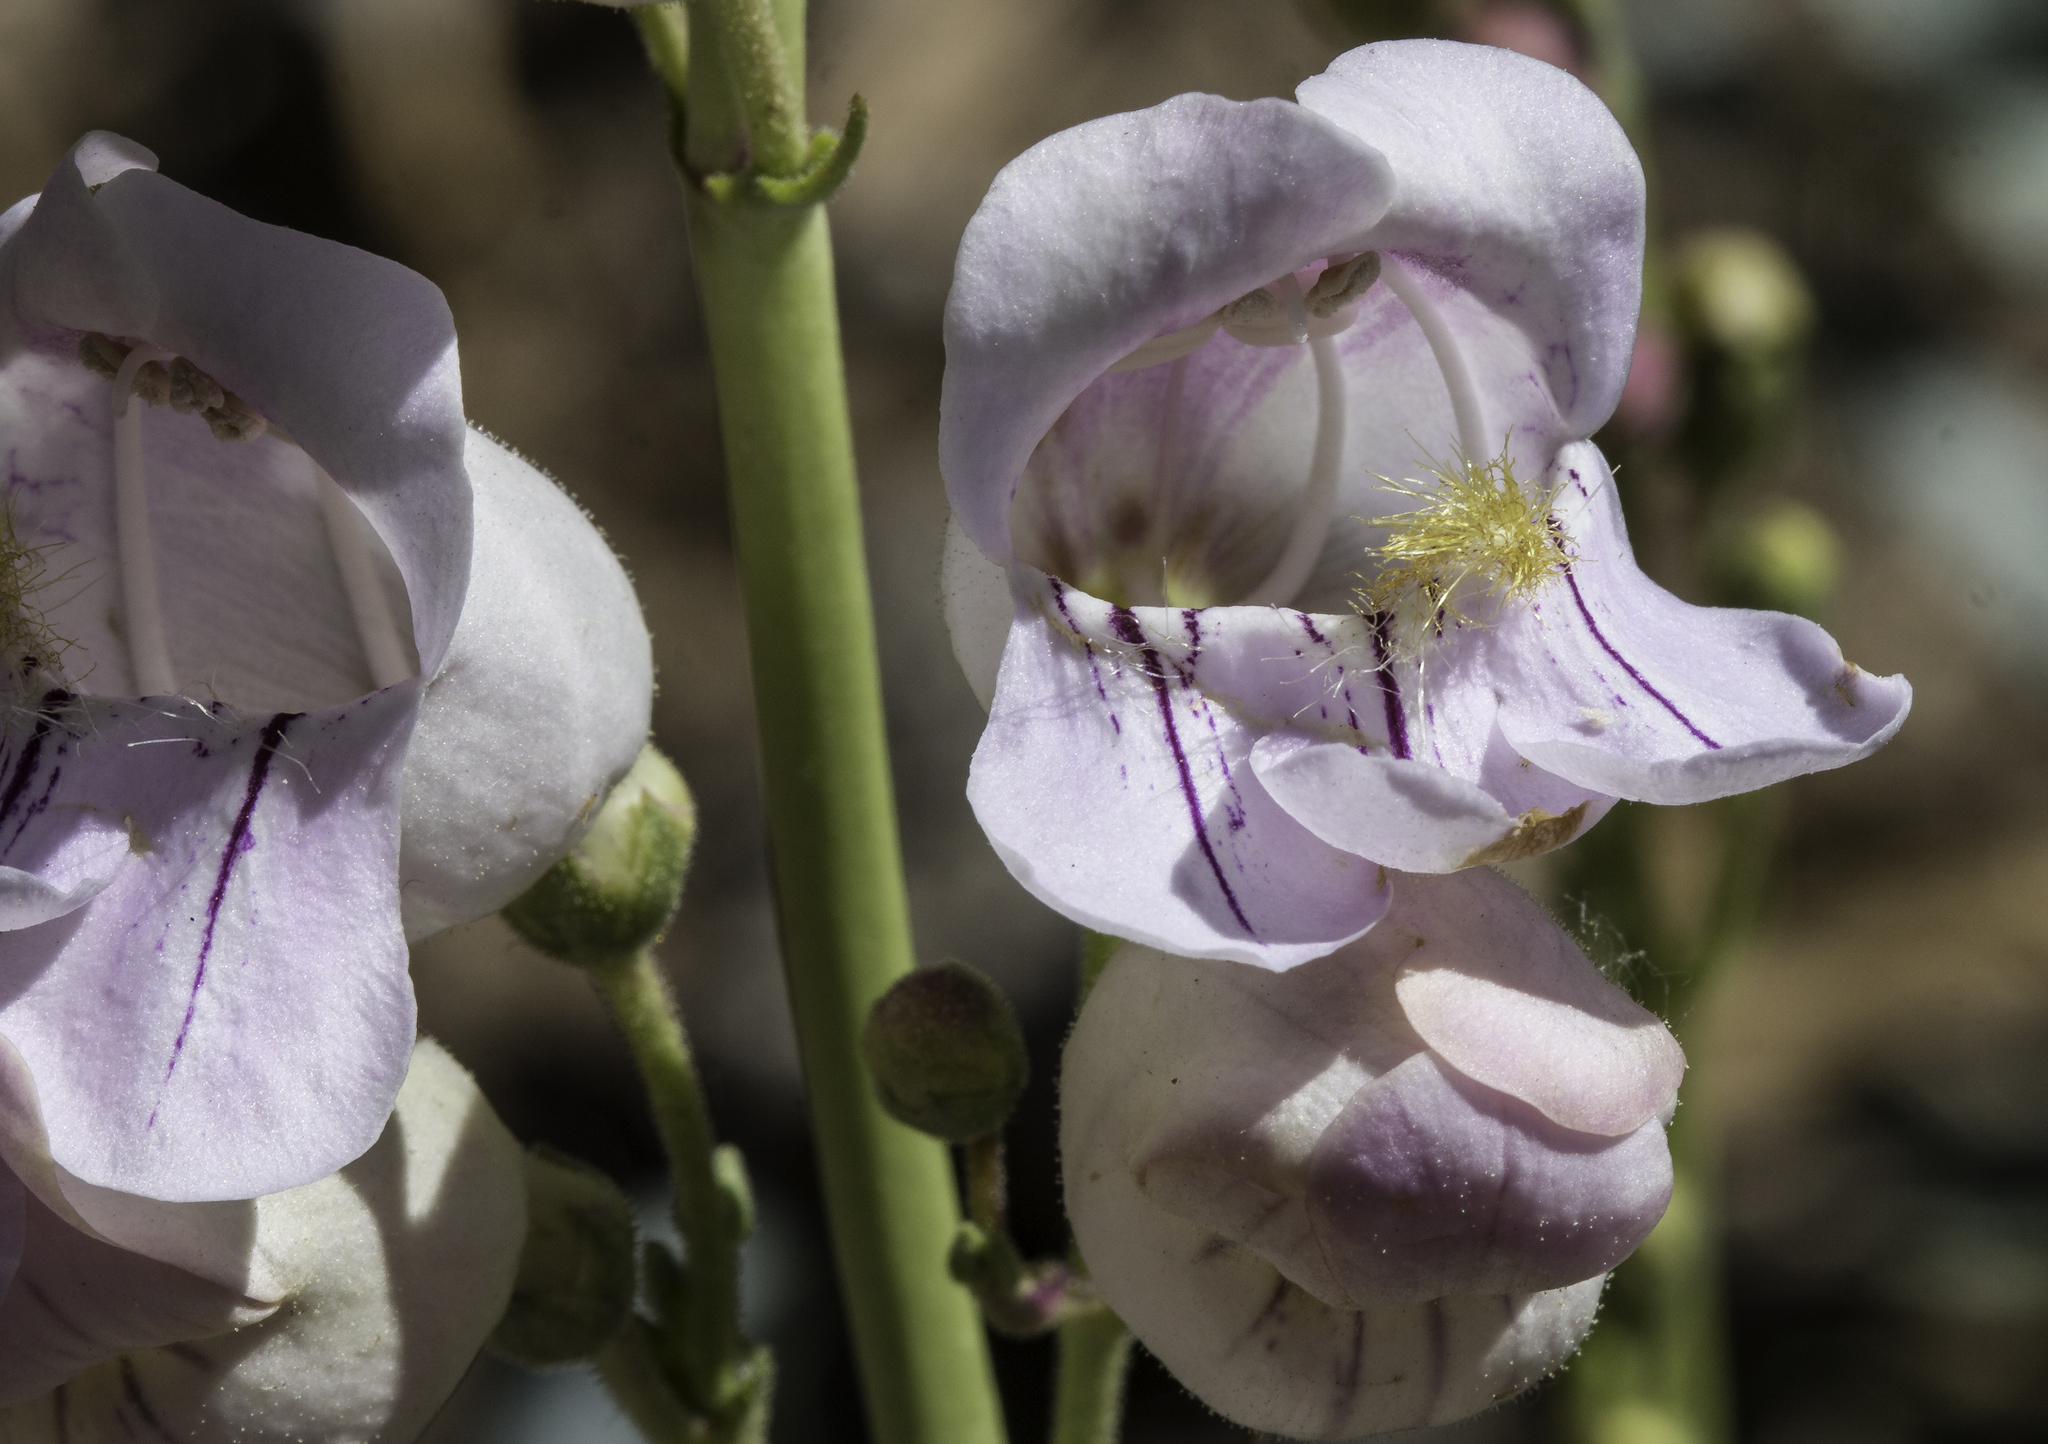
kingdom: Plantae
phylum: Tracheophyta
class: Magnoliopsida
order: Lamiales
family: Plantaginaceae
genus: Penstemon
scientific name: Penstemon palmeri
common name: Palmer penstemon
